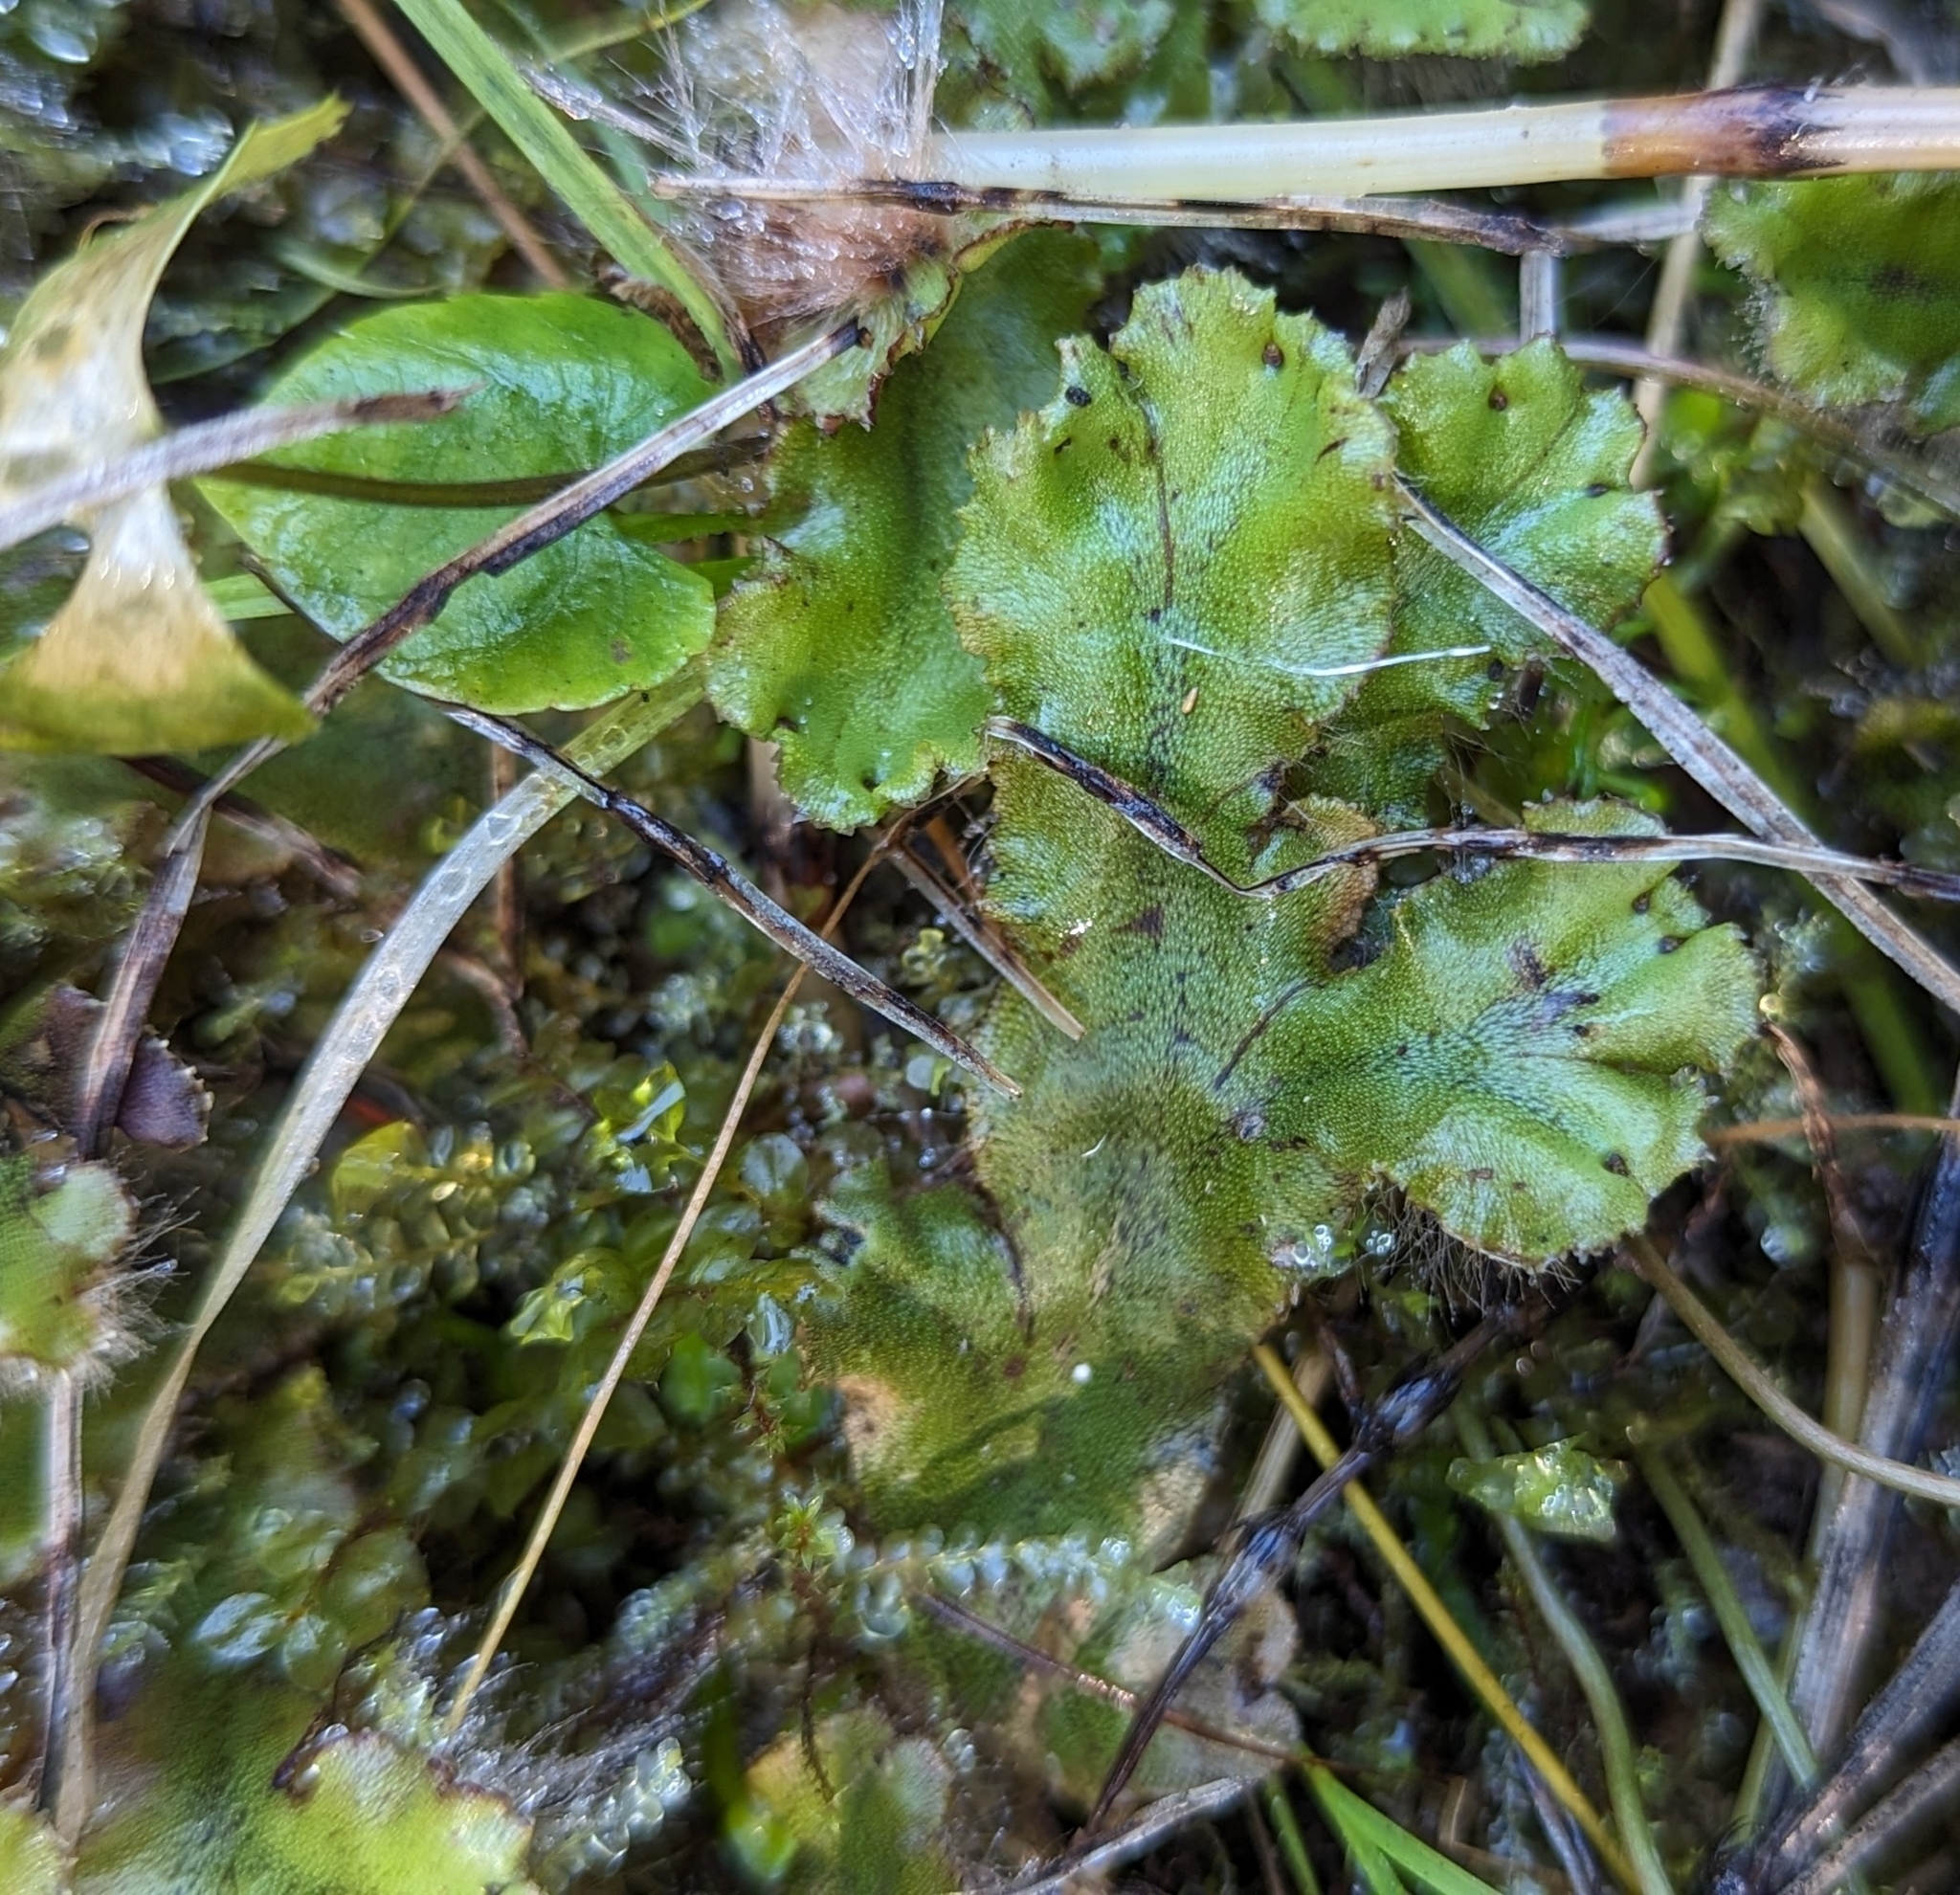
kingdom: Plantae
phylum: Marchantiophyta
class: Marchantiopsida
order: Marchantiales
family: Marchantiaceae
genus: Marchantia
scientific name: Marchantia polymorpha
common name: Common liverwort
